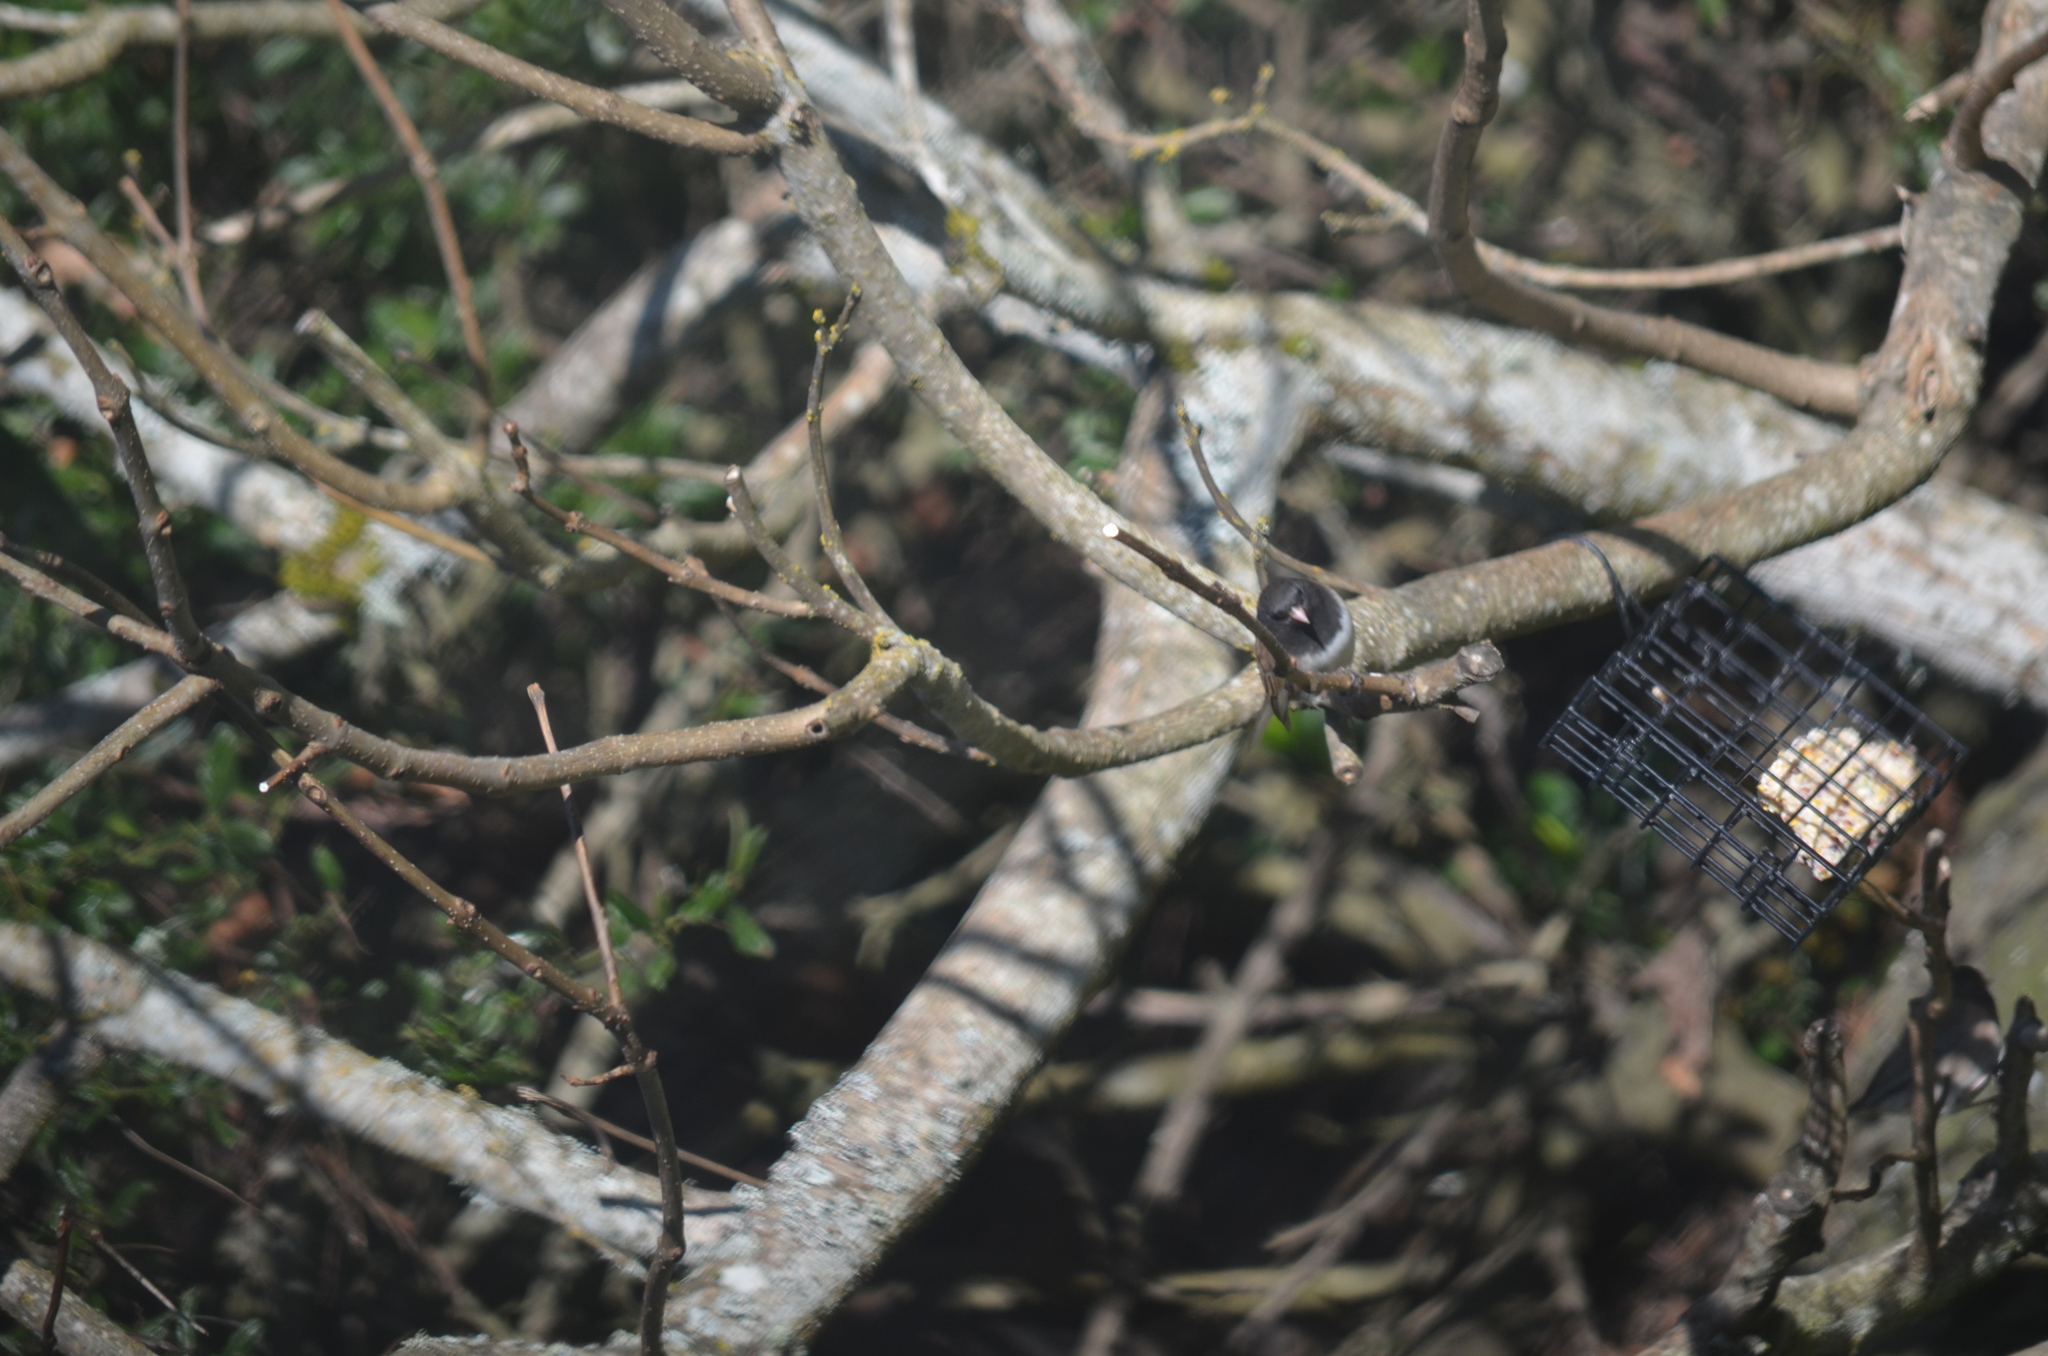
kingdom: Animalia
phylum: Chordata
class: Aves
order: Passeriformes
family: Passerellidae
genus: Junco
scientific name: Junco hyemalis
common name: Dark-eyed junco
